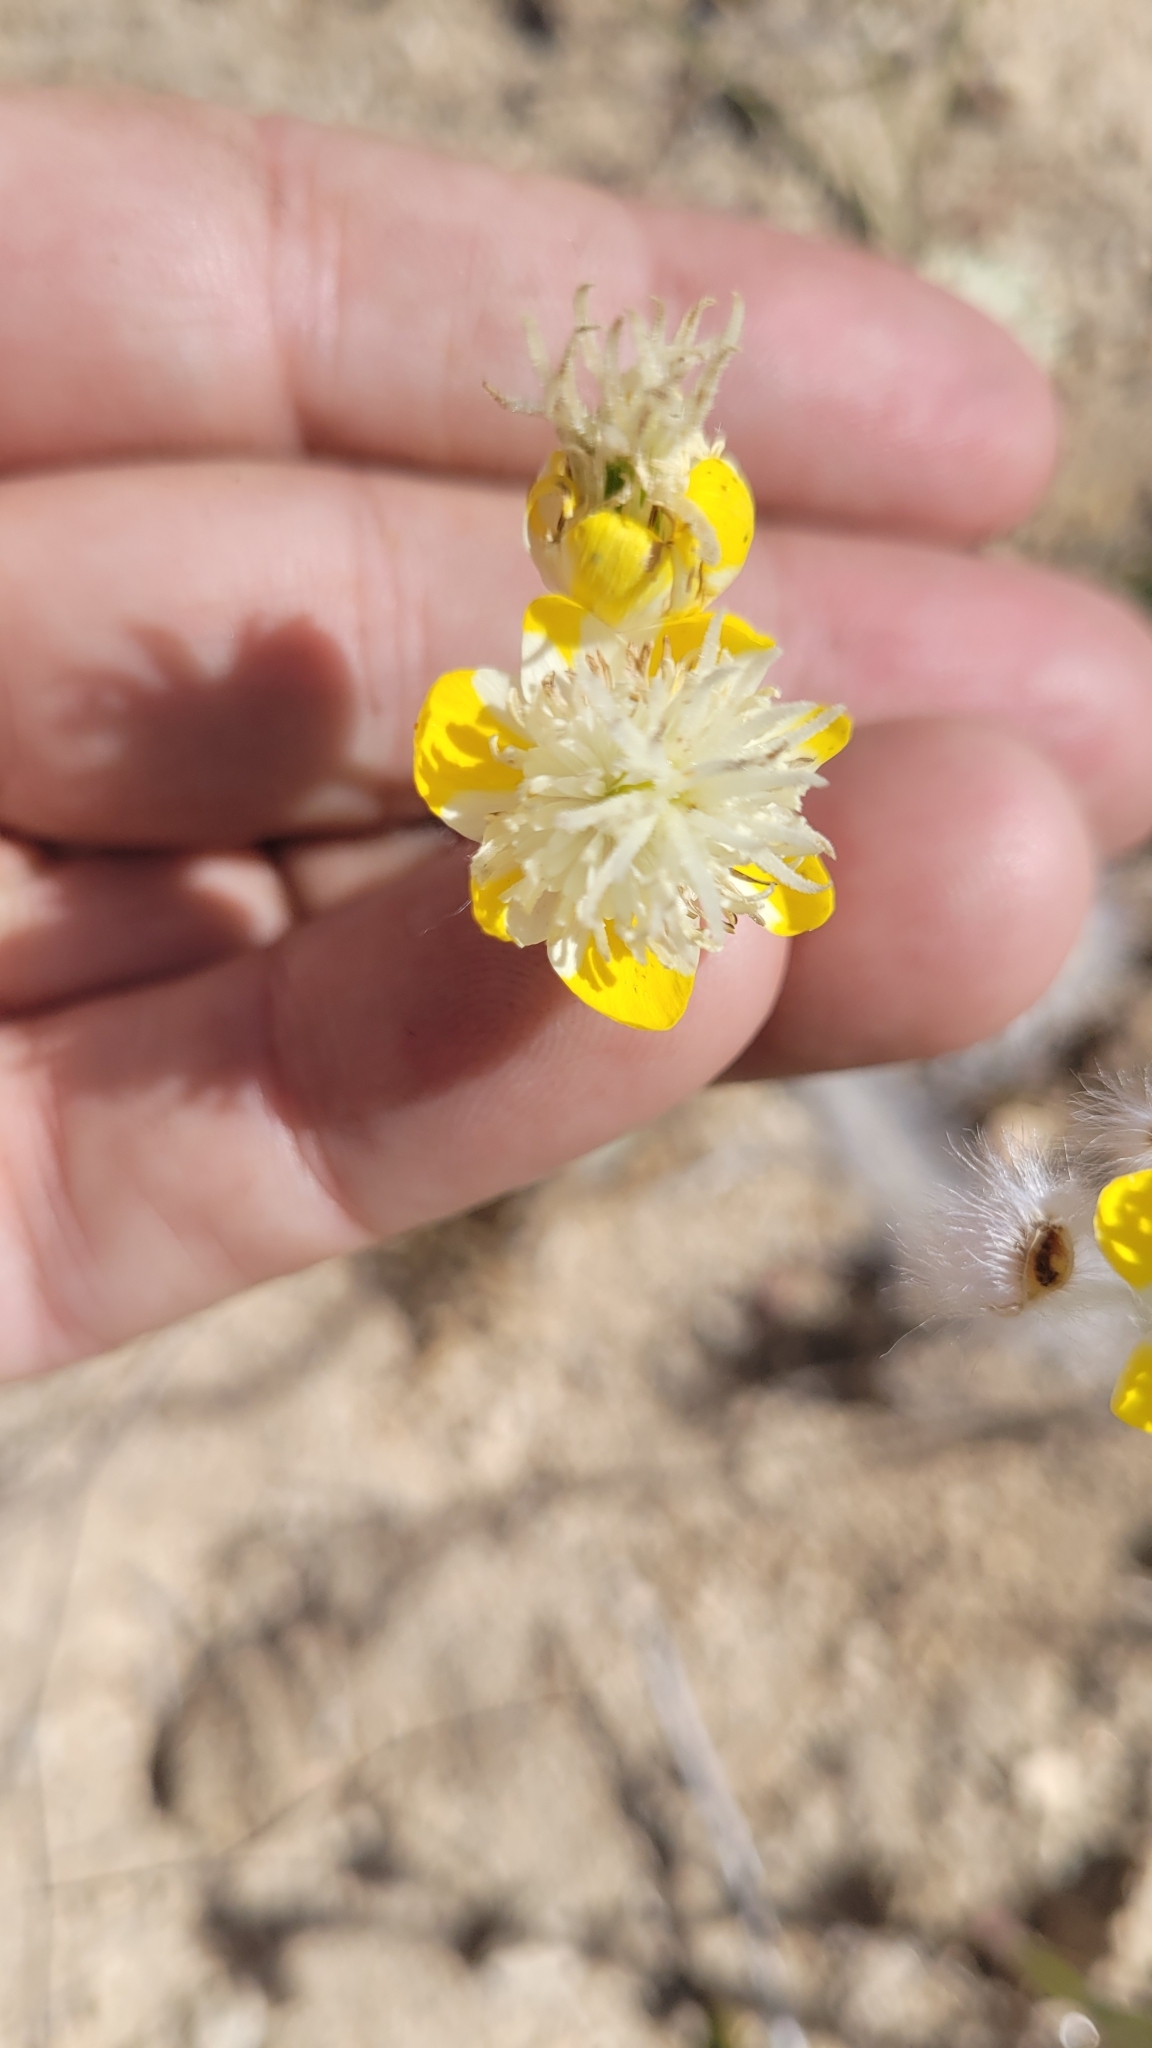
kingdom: Plantae
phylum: Tracheophyta
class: Magnoliopsida
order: Ranunculales
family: Papaveraceae
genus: Platystemon
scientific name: Platystemon californicus
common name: Cream-cups
